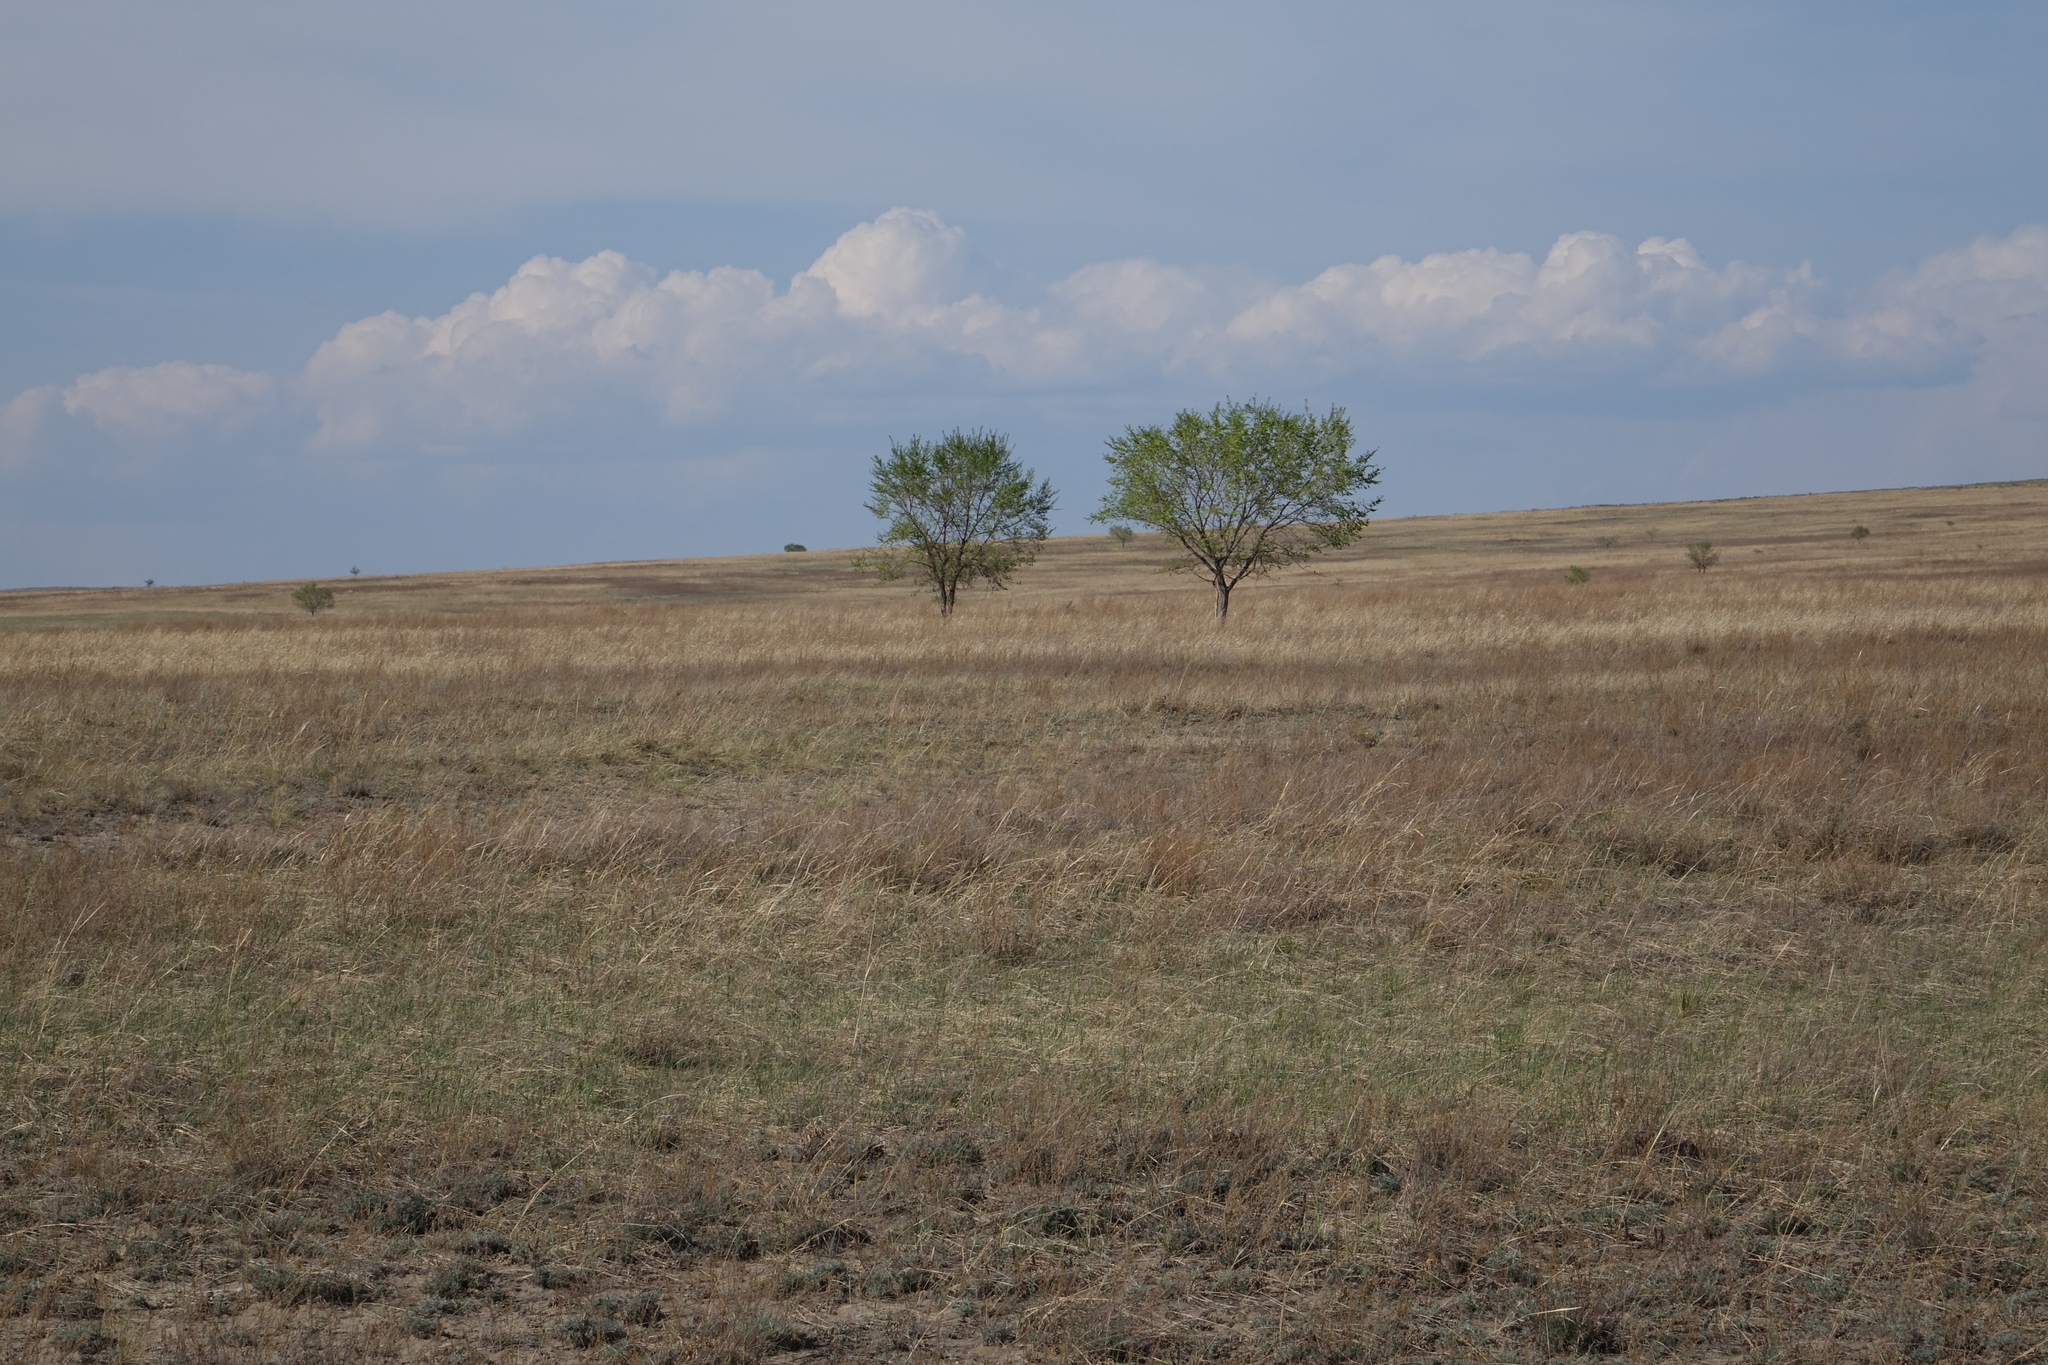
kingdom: Plantae
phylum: Tracheophyta
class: Magnoliopsida
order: Rosales
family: Ulmaceae
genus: Ulmus
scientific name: Ulmus pumila
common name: Siberian elm
